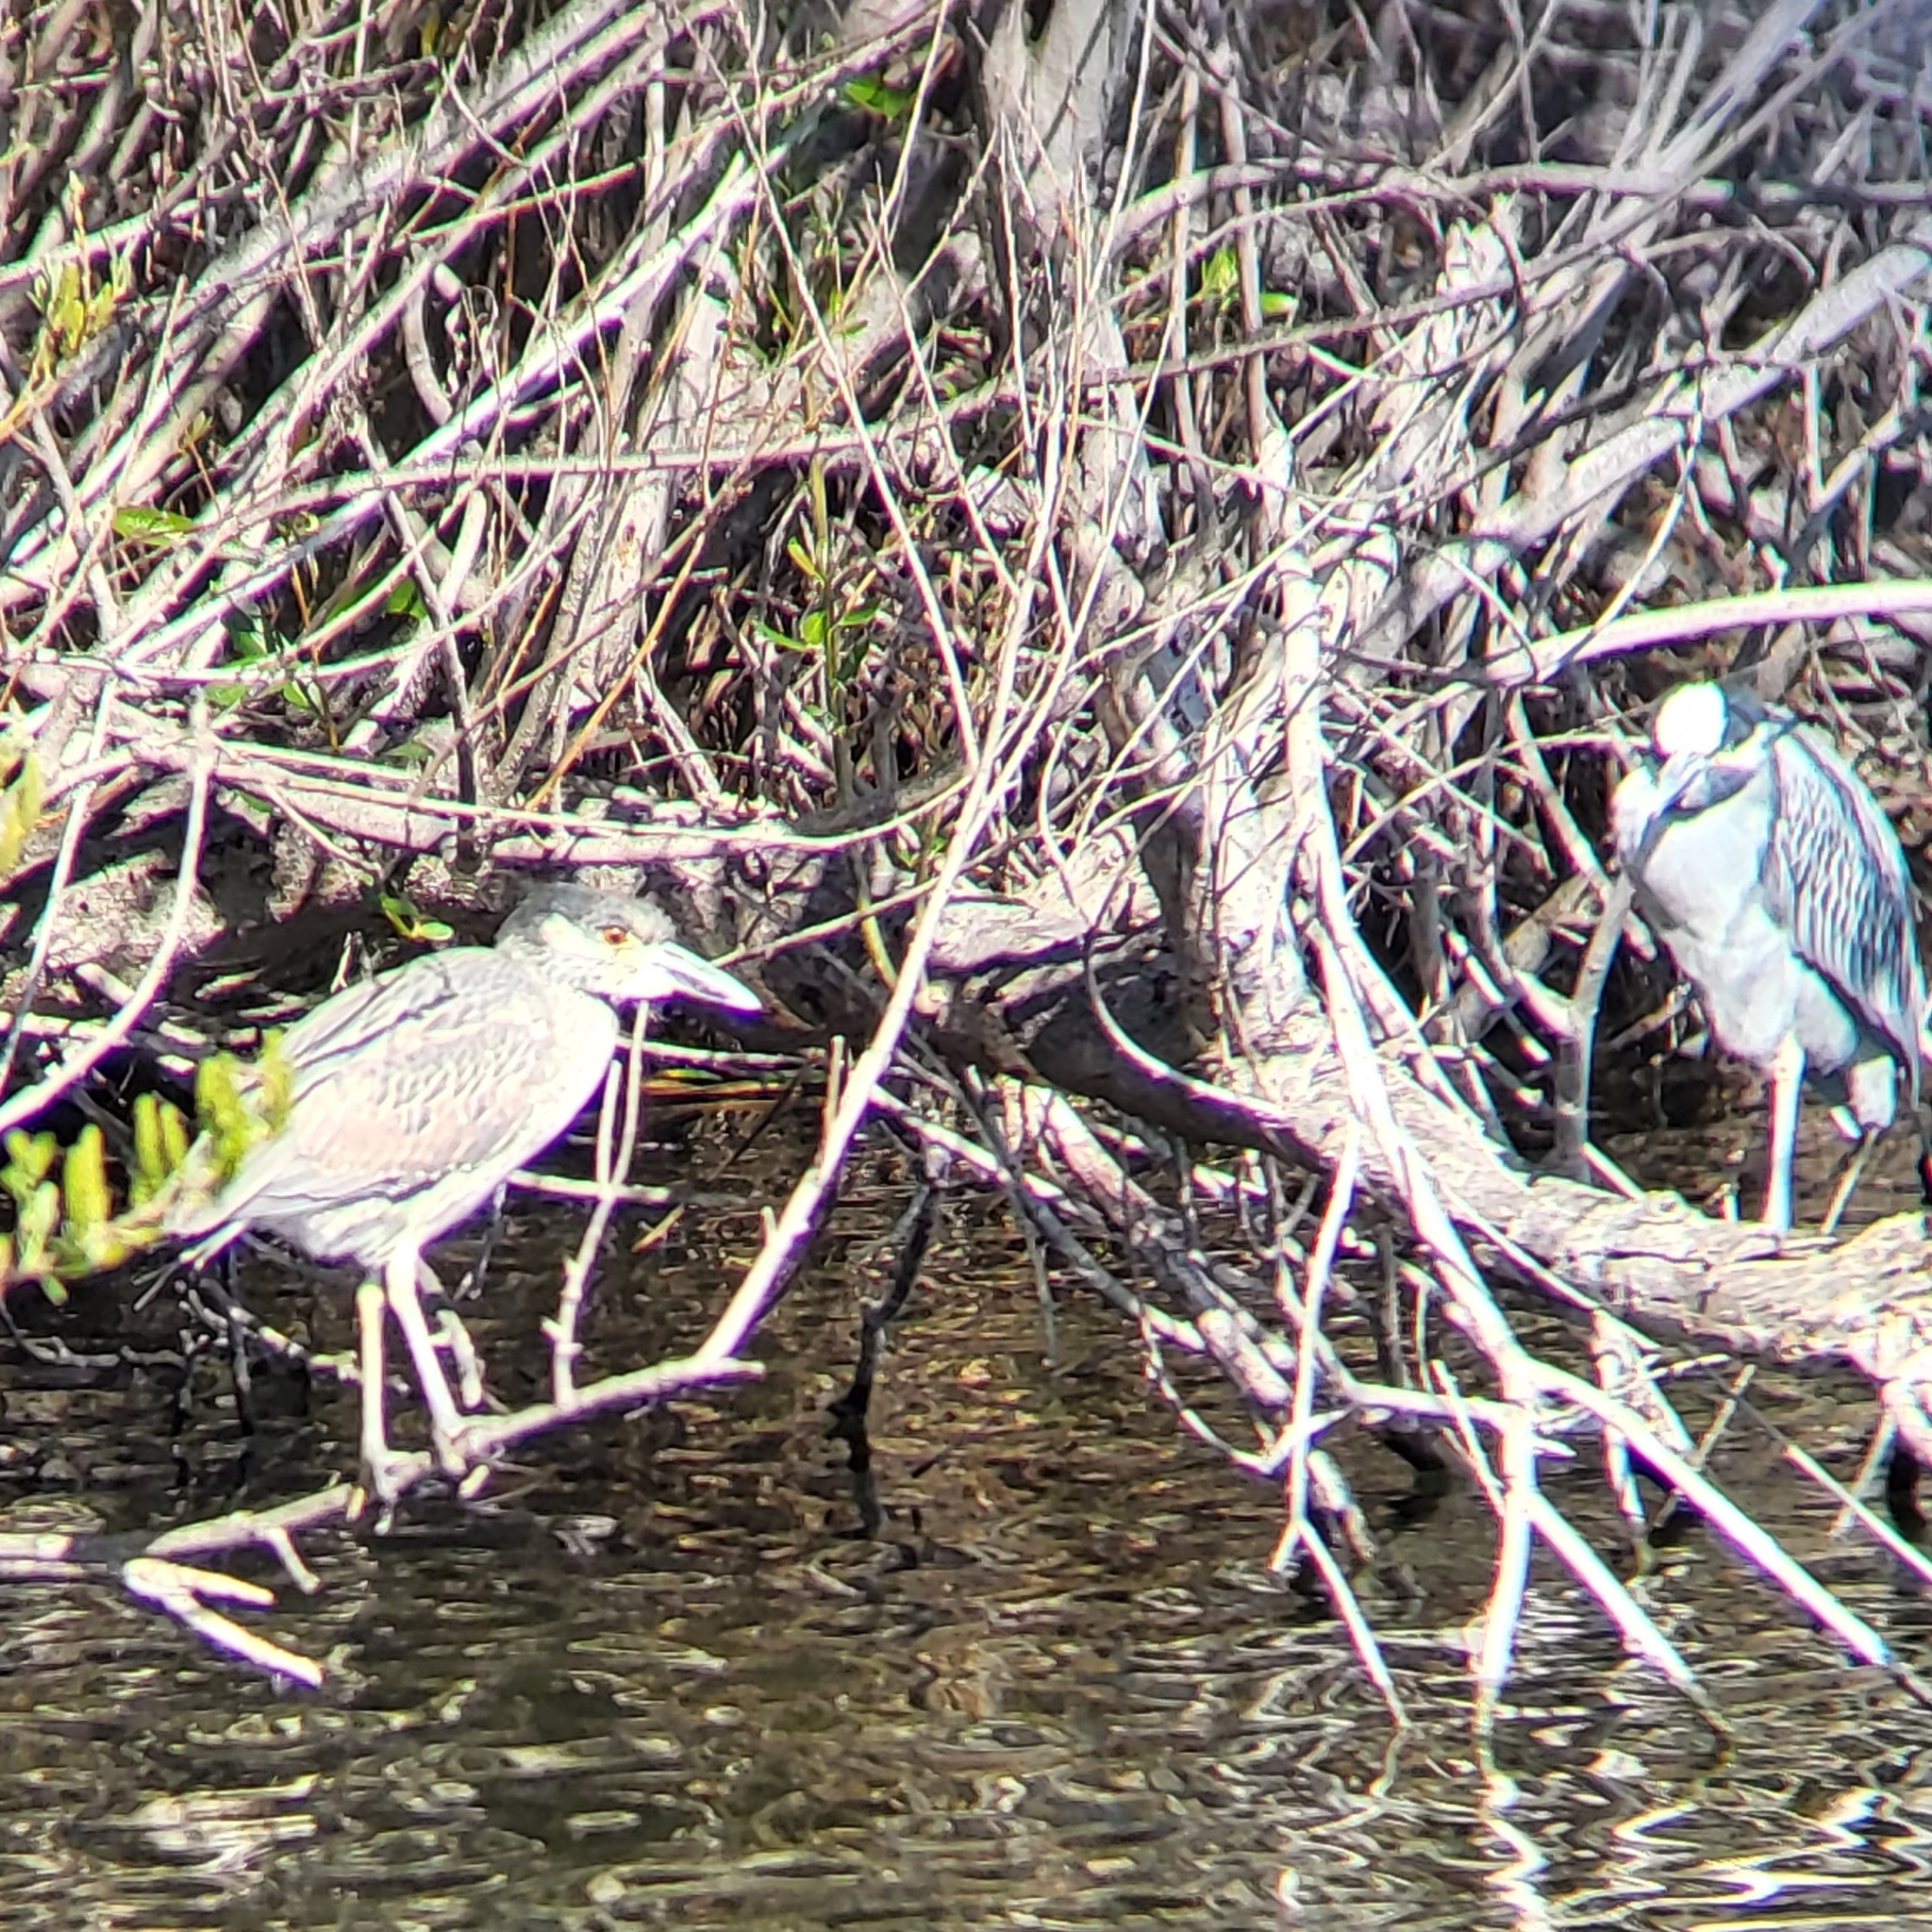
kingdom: Animalia
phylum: Chordata
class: Aves
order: Pelecaniformes
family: Ardeidae
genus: Nyctanassa
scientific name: Nyctanassa violacea
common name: Yellow-crowned night heron
